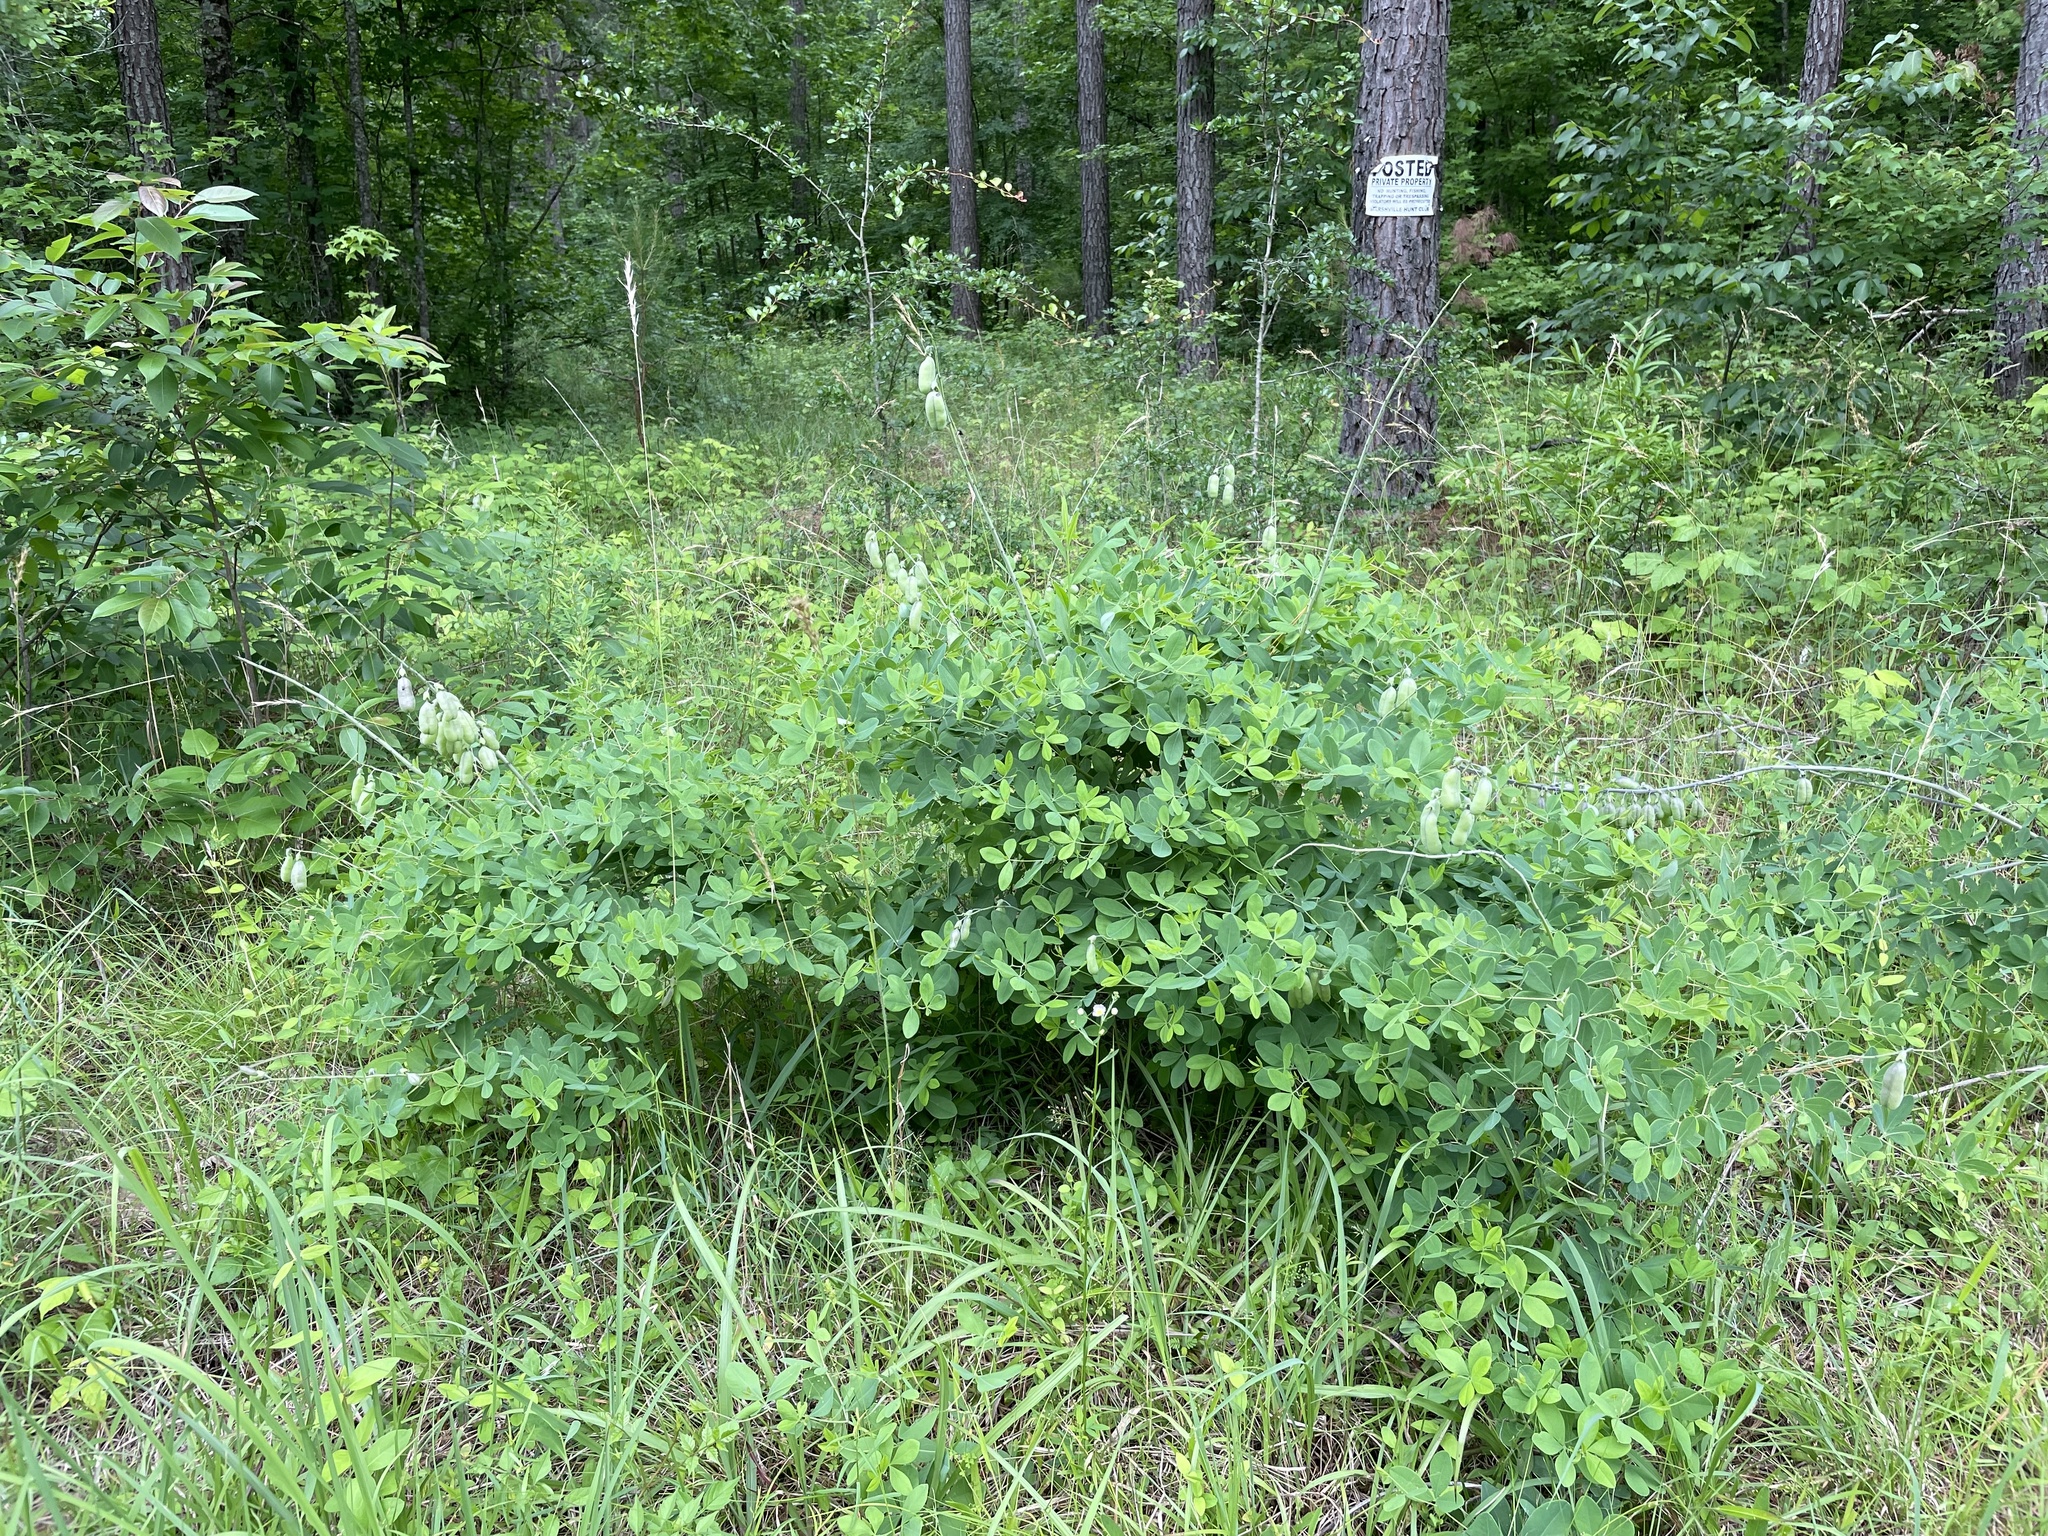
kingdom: Plantae
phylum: Tracheophyta
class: Magnoliopsida
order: Fabales
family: Fabaceae
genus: Baptisia
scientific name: Baptisia alba
